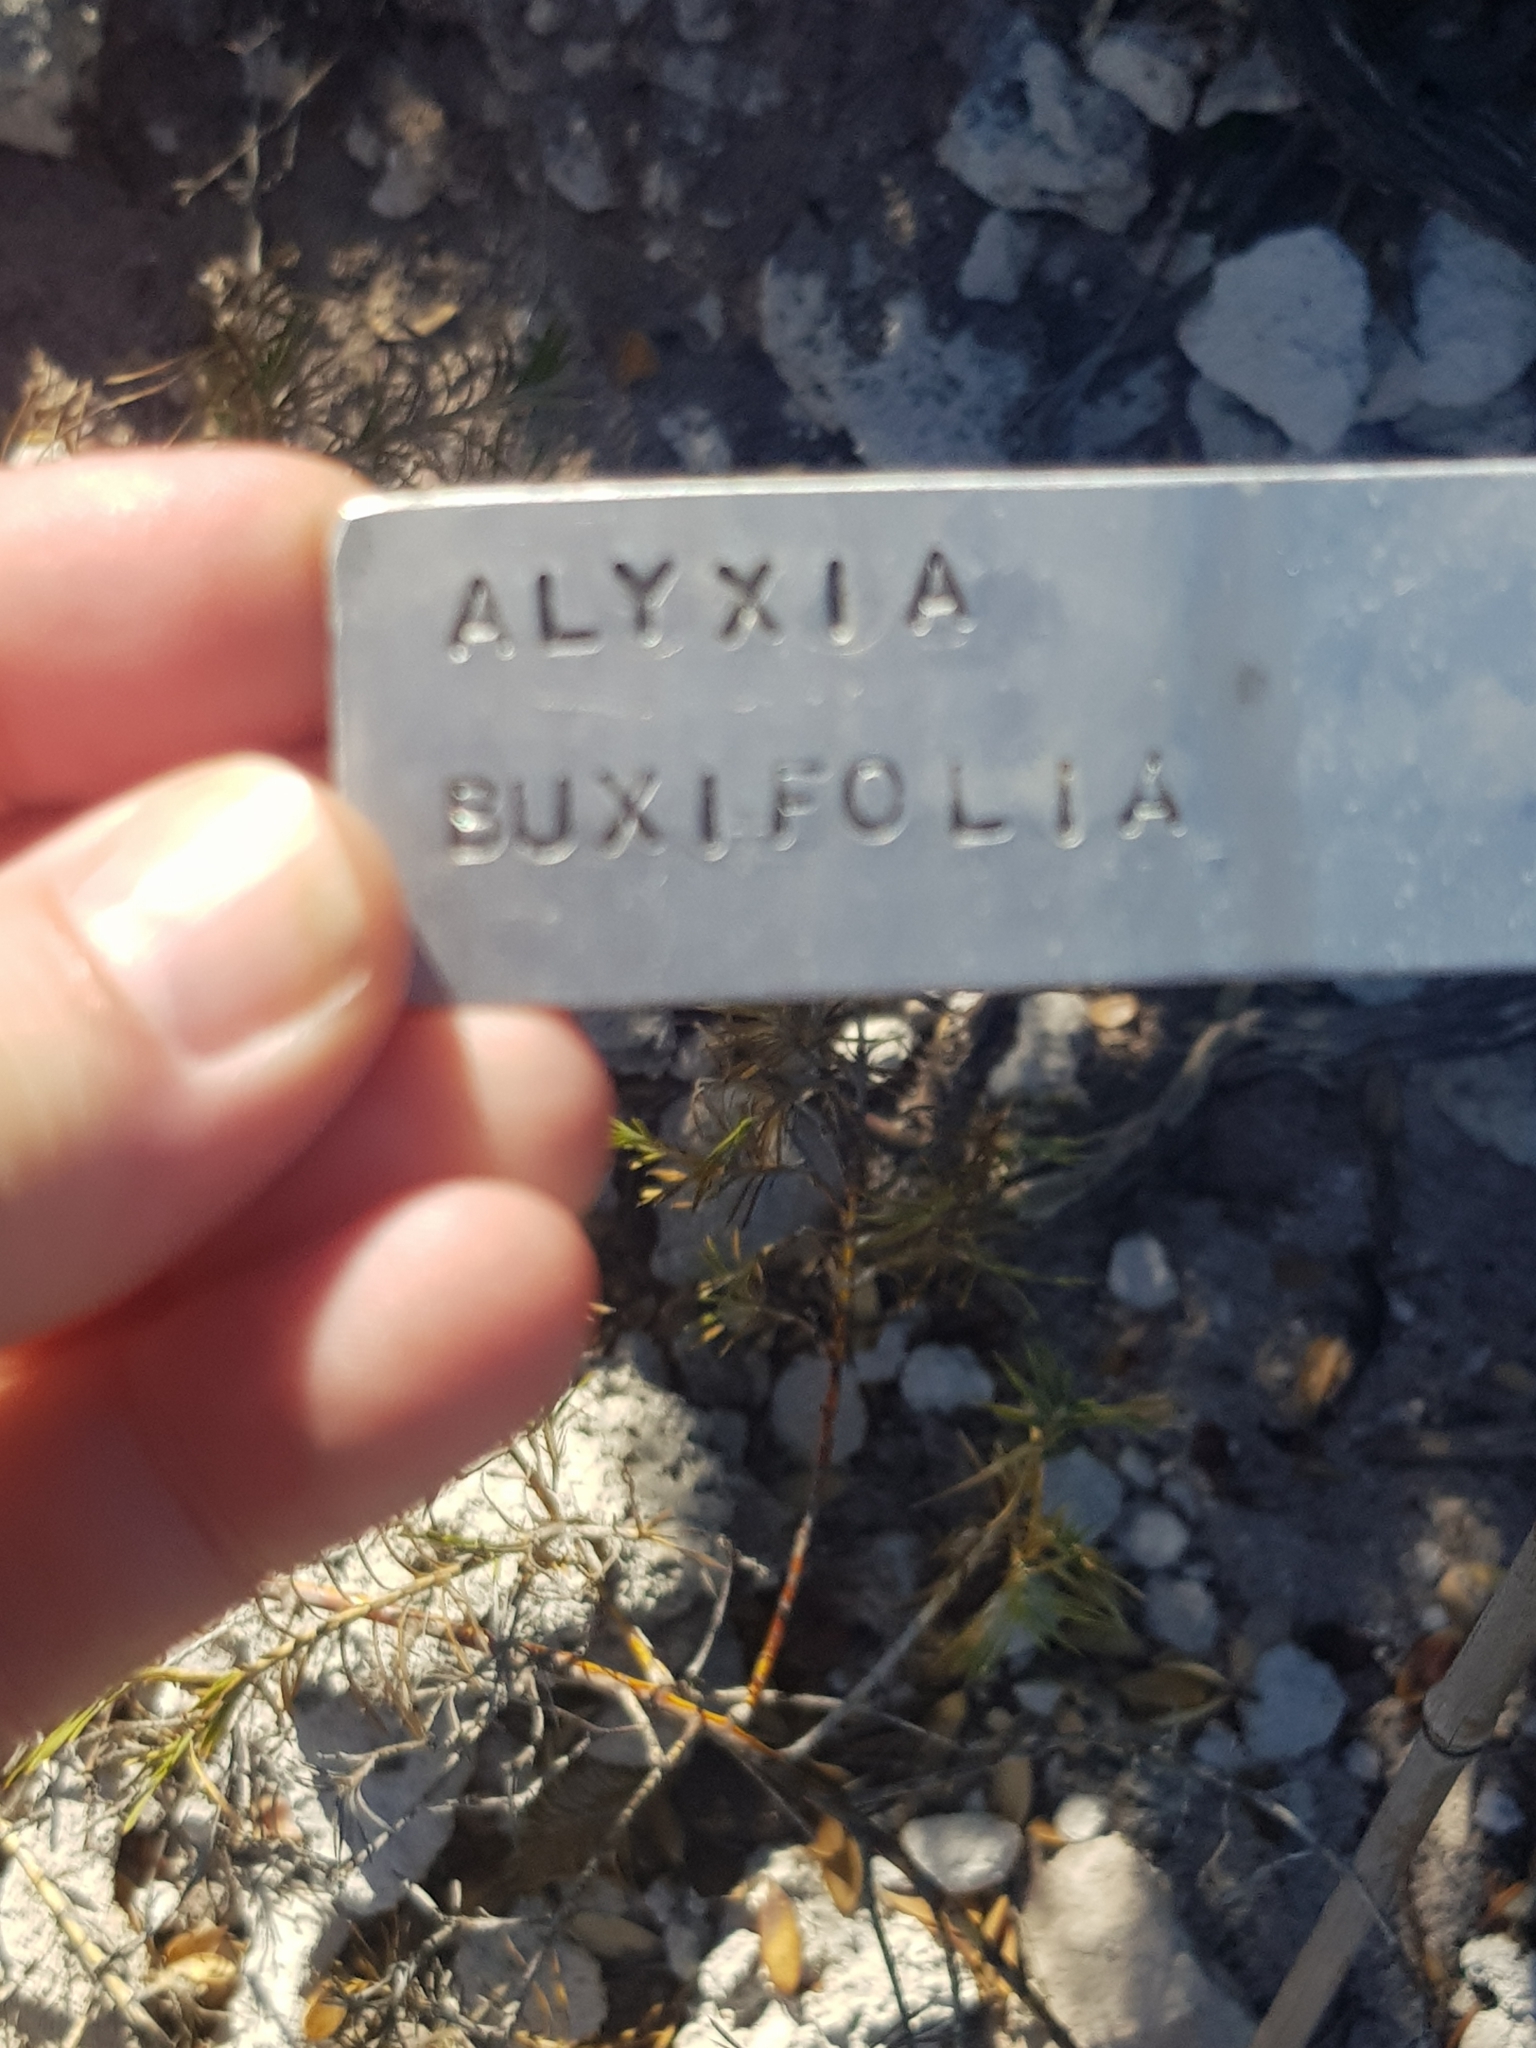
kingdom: Plantae
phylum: Tracheophyta
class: Liliopsida
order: Asparagales
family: Asparagaceae
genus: Acanthocarpus
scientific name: Acanthocarpus preissii
